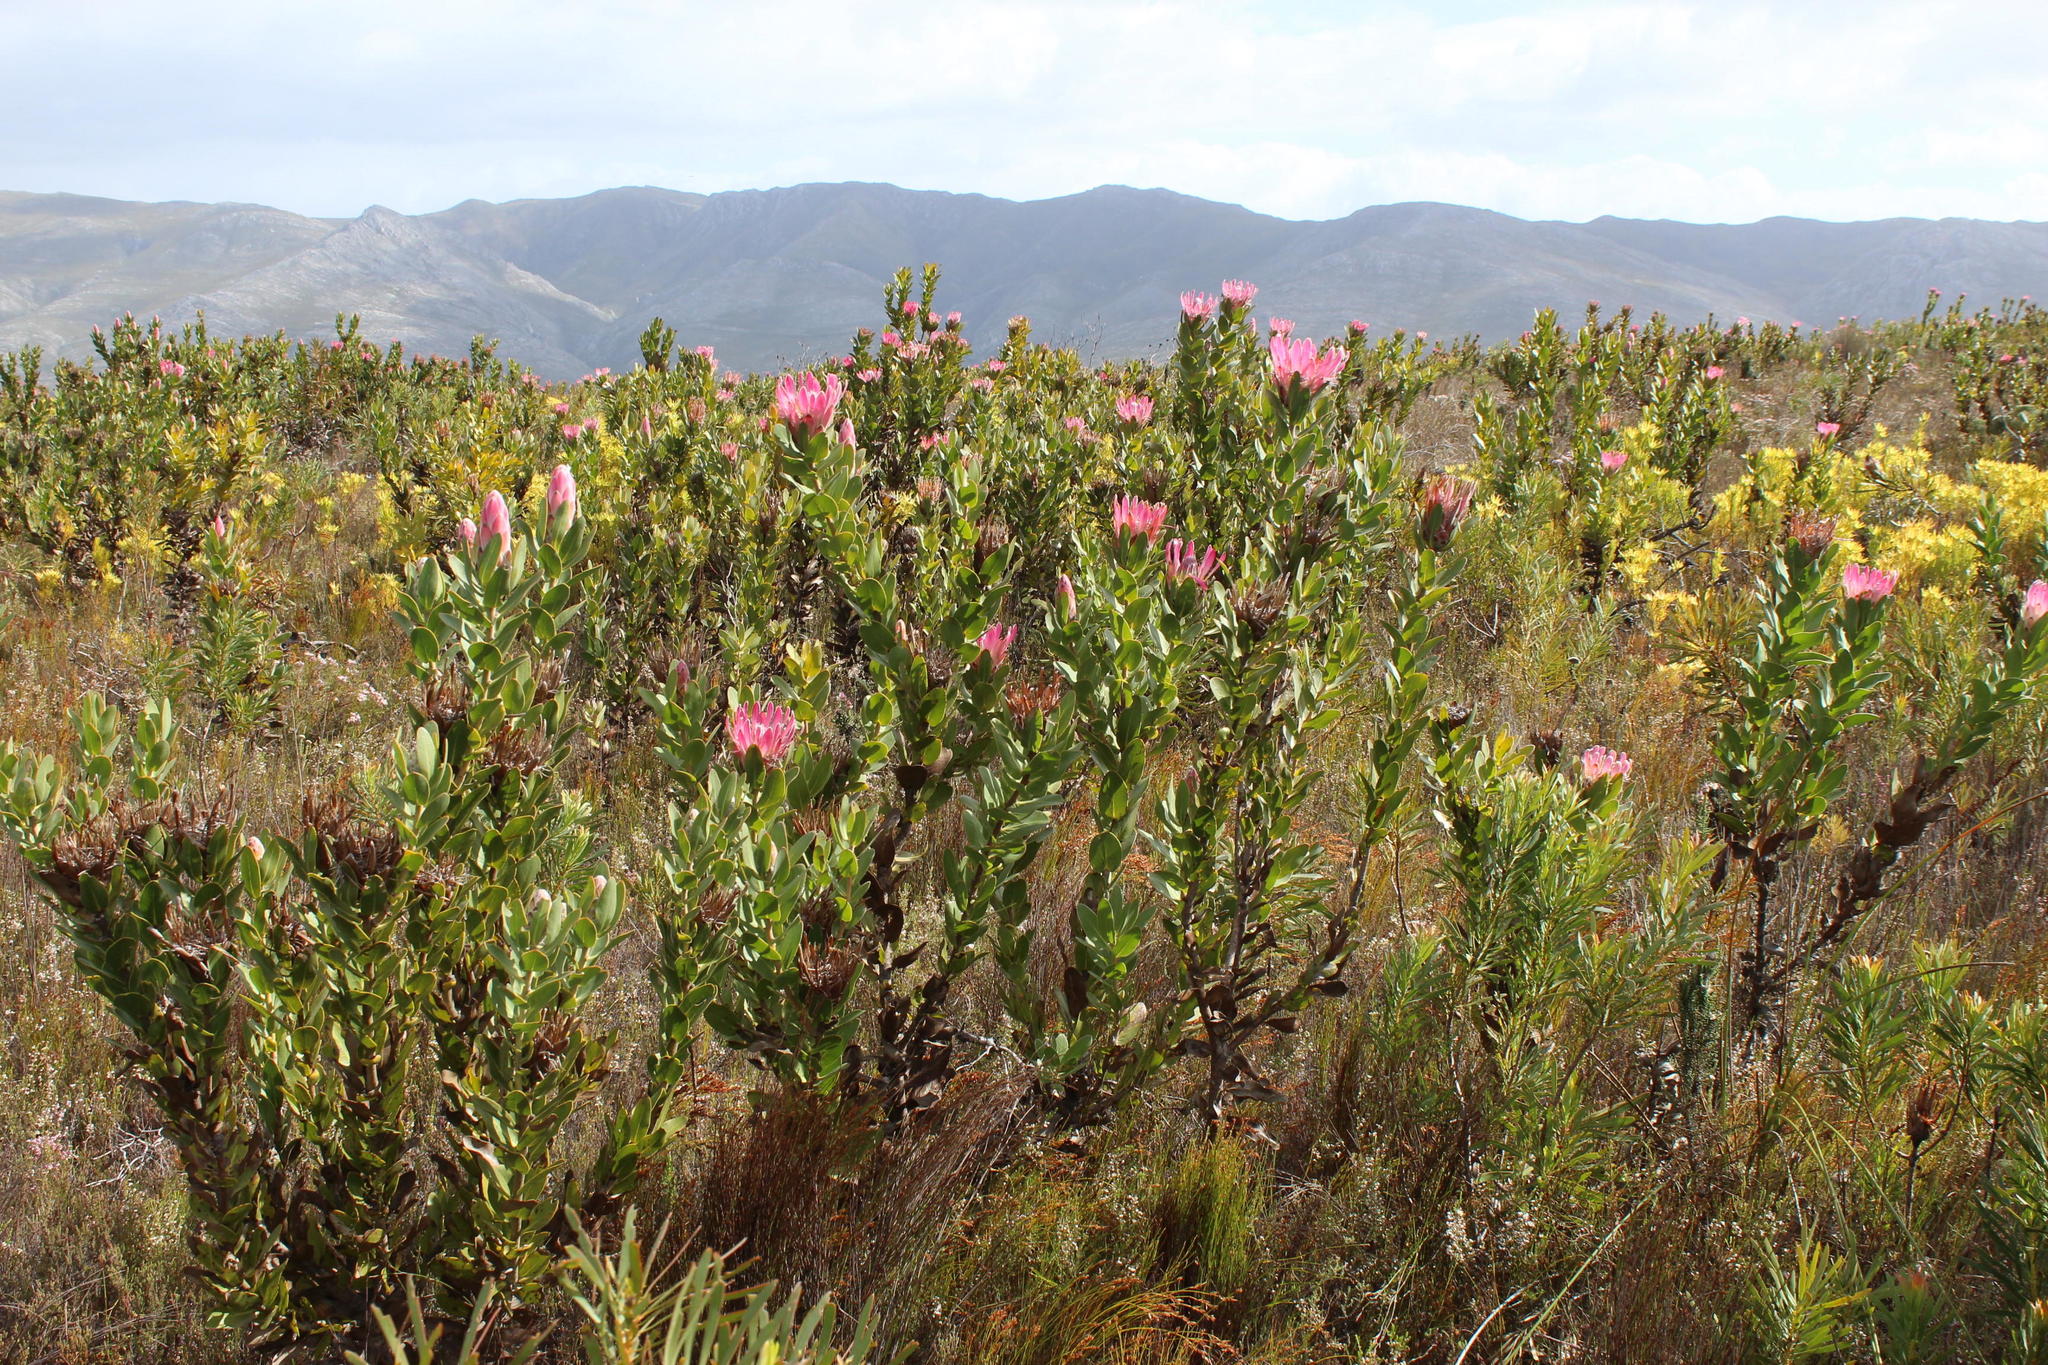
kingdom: Plantae
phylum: Tracheophyta
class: Magnoliopsida
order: Proteales
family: Proteaceae
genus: Protea
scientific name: Protea compacta
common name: Bot river protea
